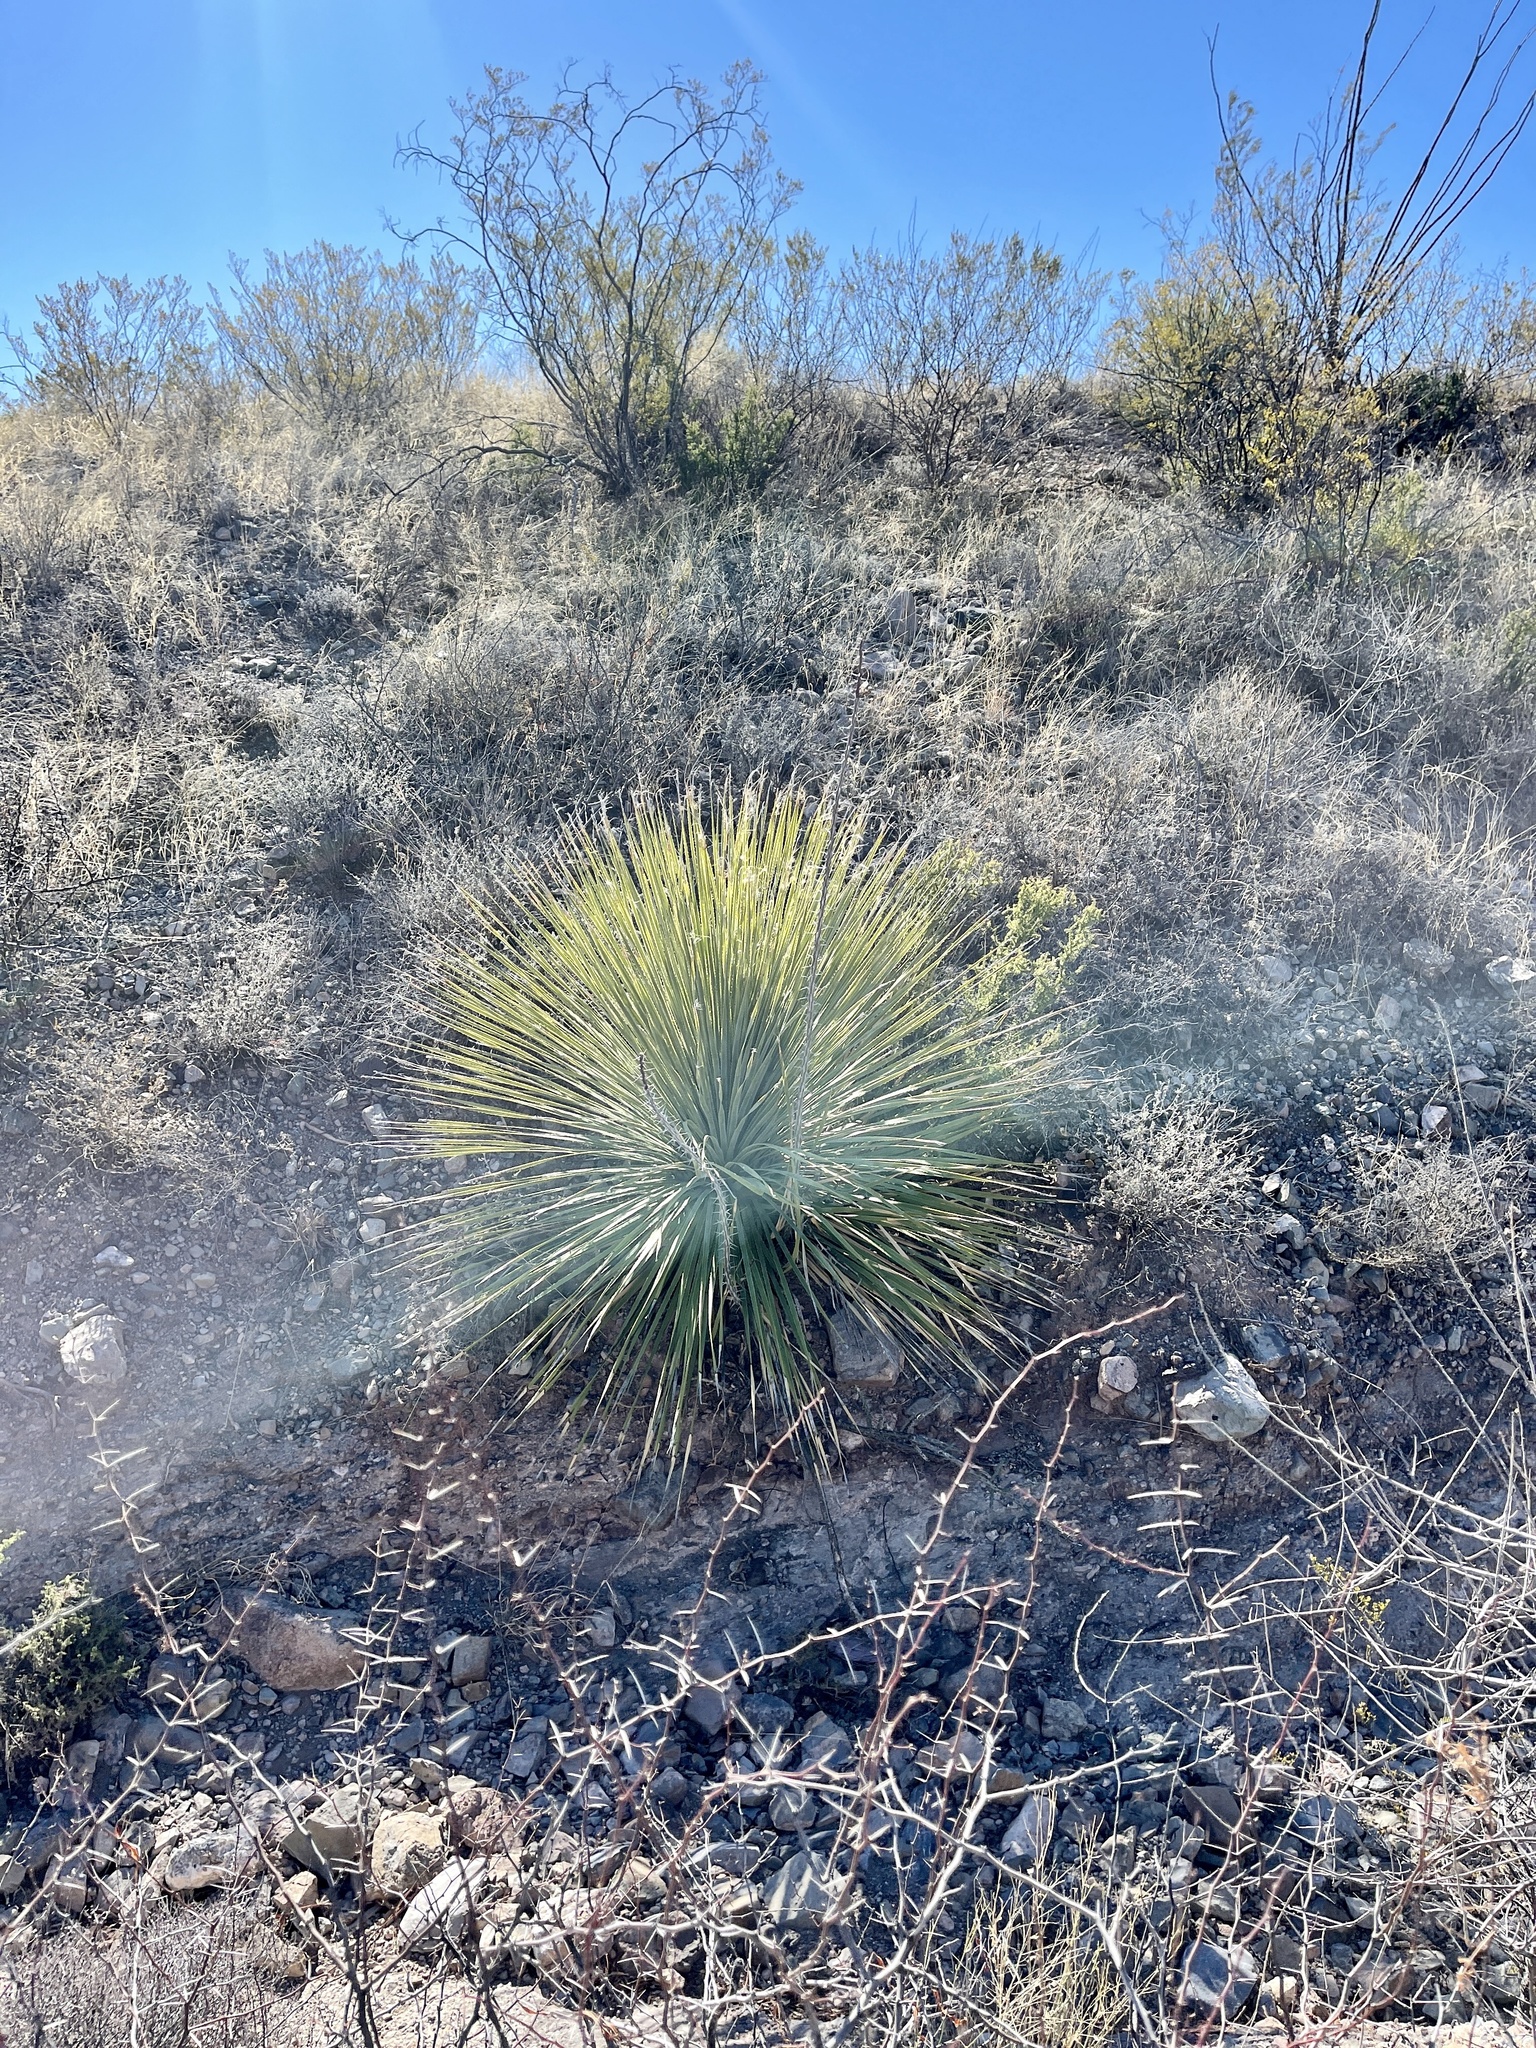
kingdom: Plantae
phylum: Tracheophyta
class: Liliopsida
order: Asparagales
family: Asparagaceae
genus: Dasylirion
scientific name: Dasylirion wheeleri
